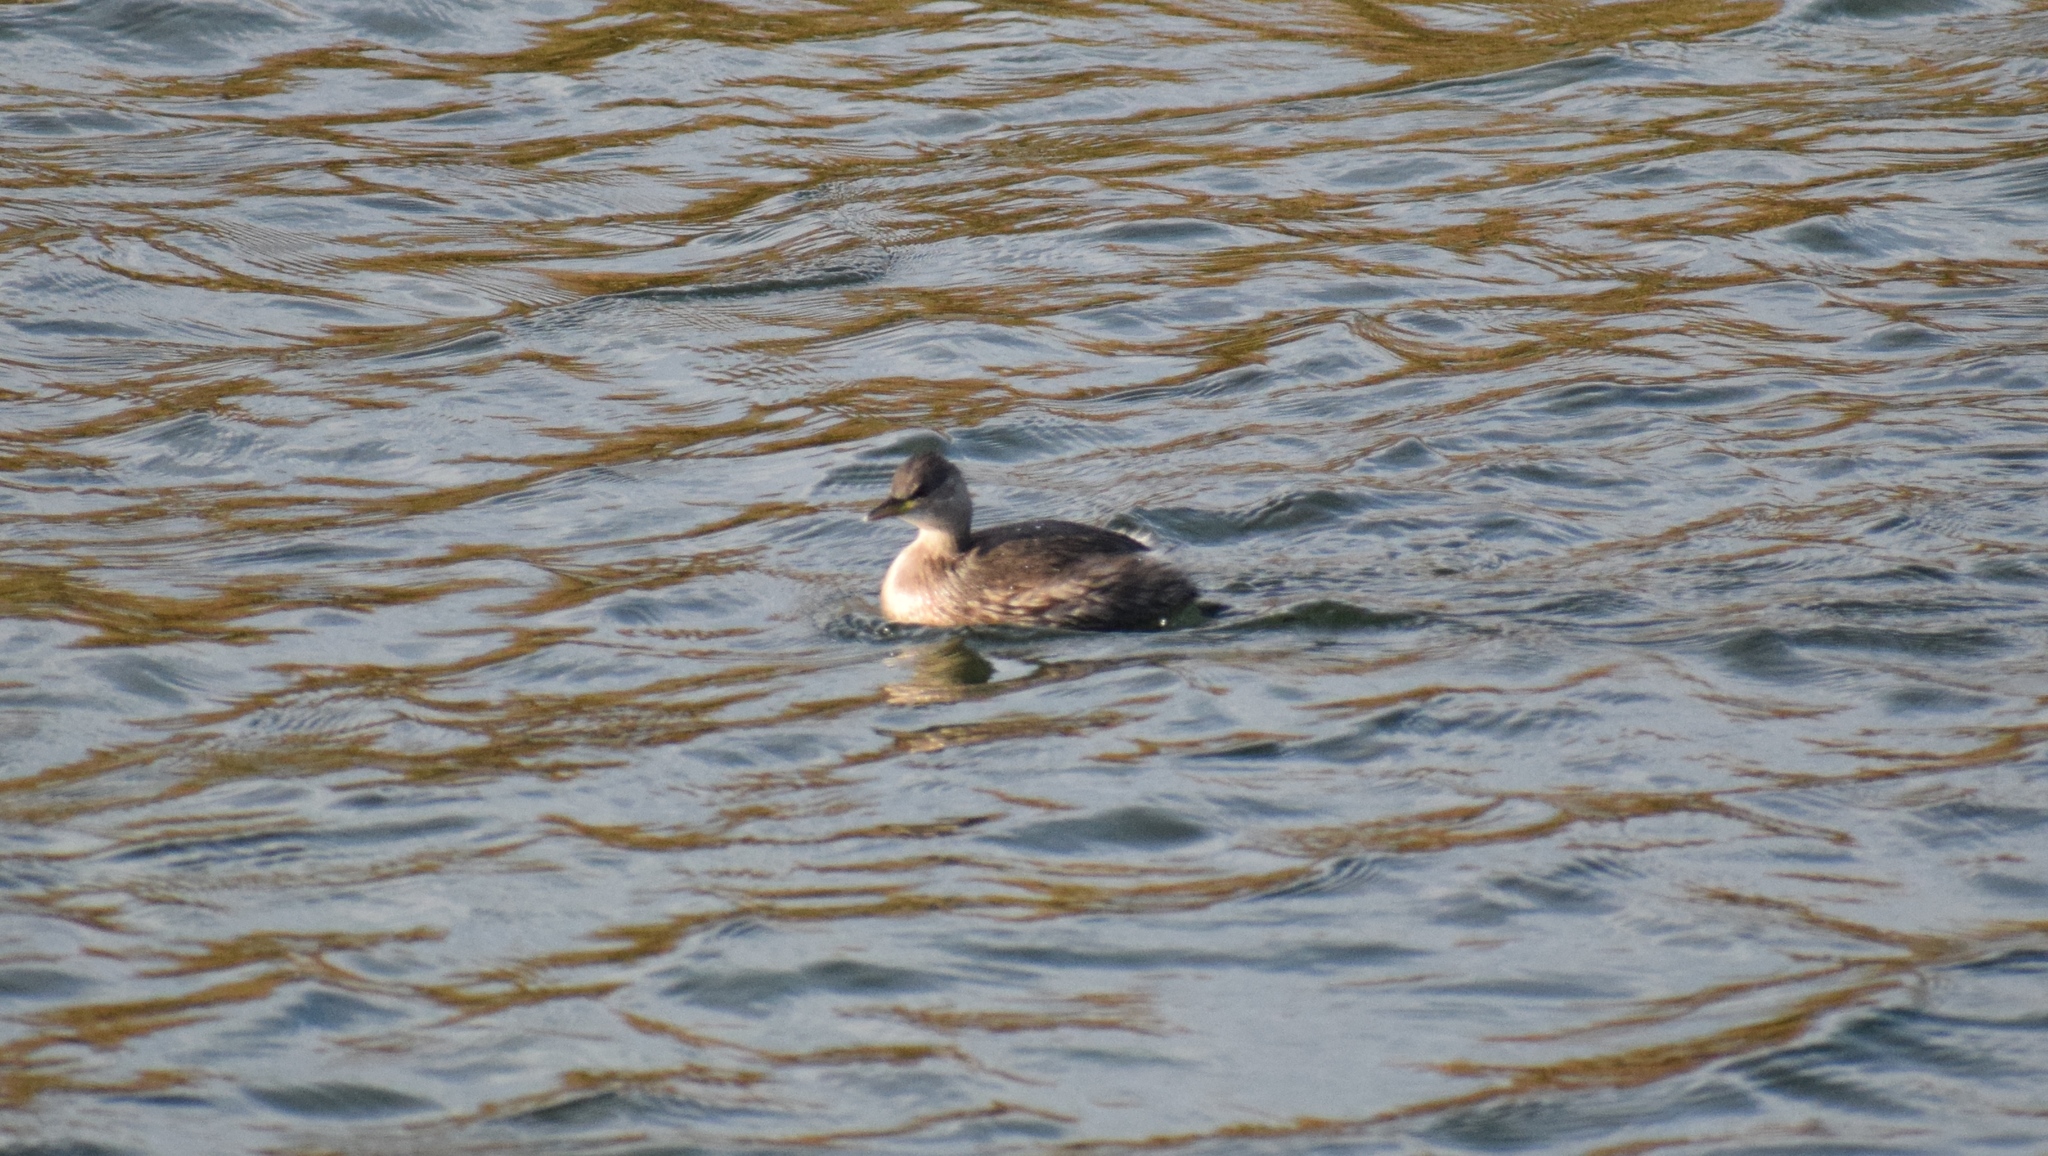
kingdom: Animalia
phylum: Chordata
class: Aves
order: Podicipediformes
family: Podicipedidae
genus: Tachybaptus
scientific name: Tachybaptus ruficollis
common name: Little grebe
